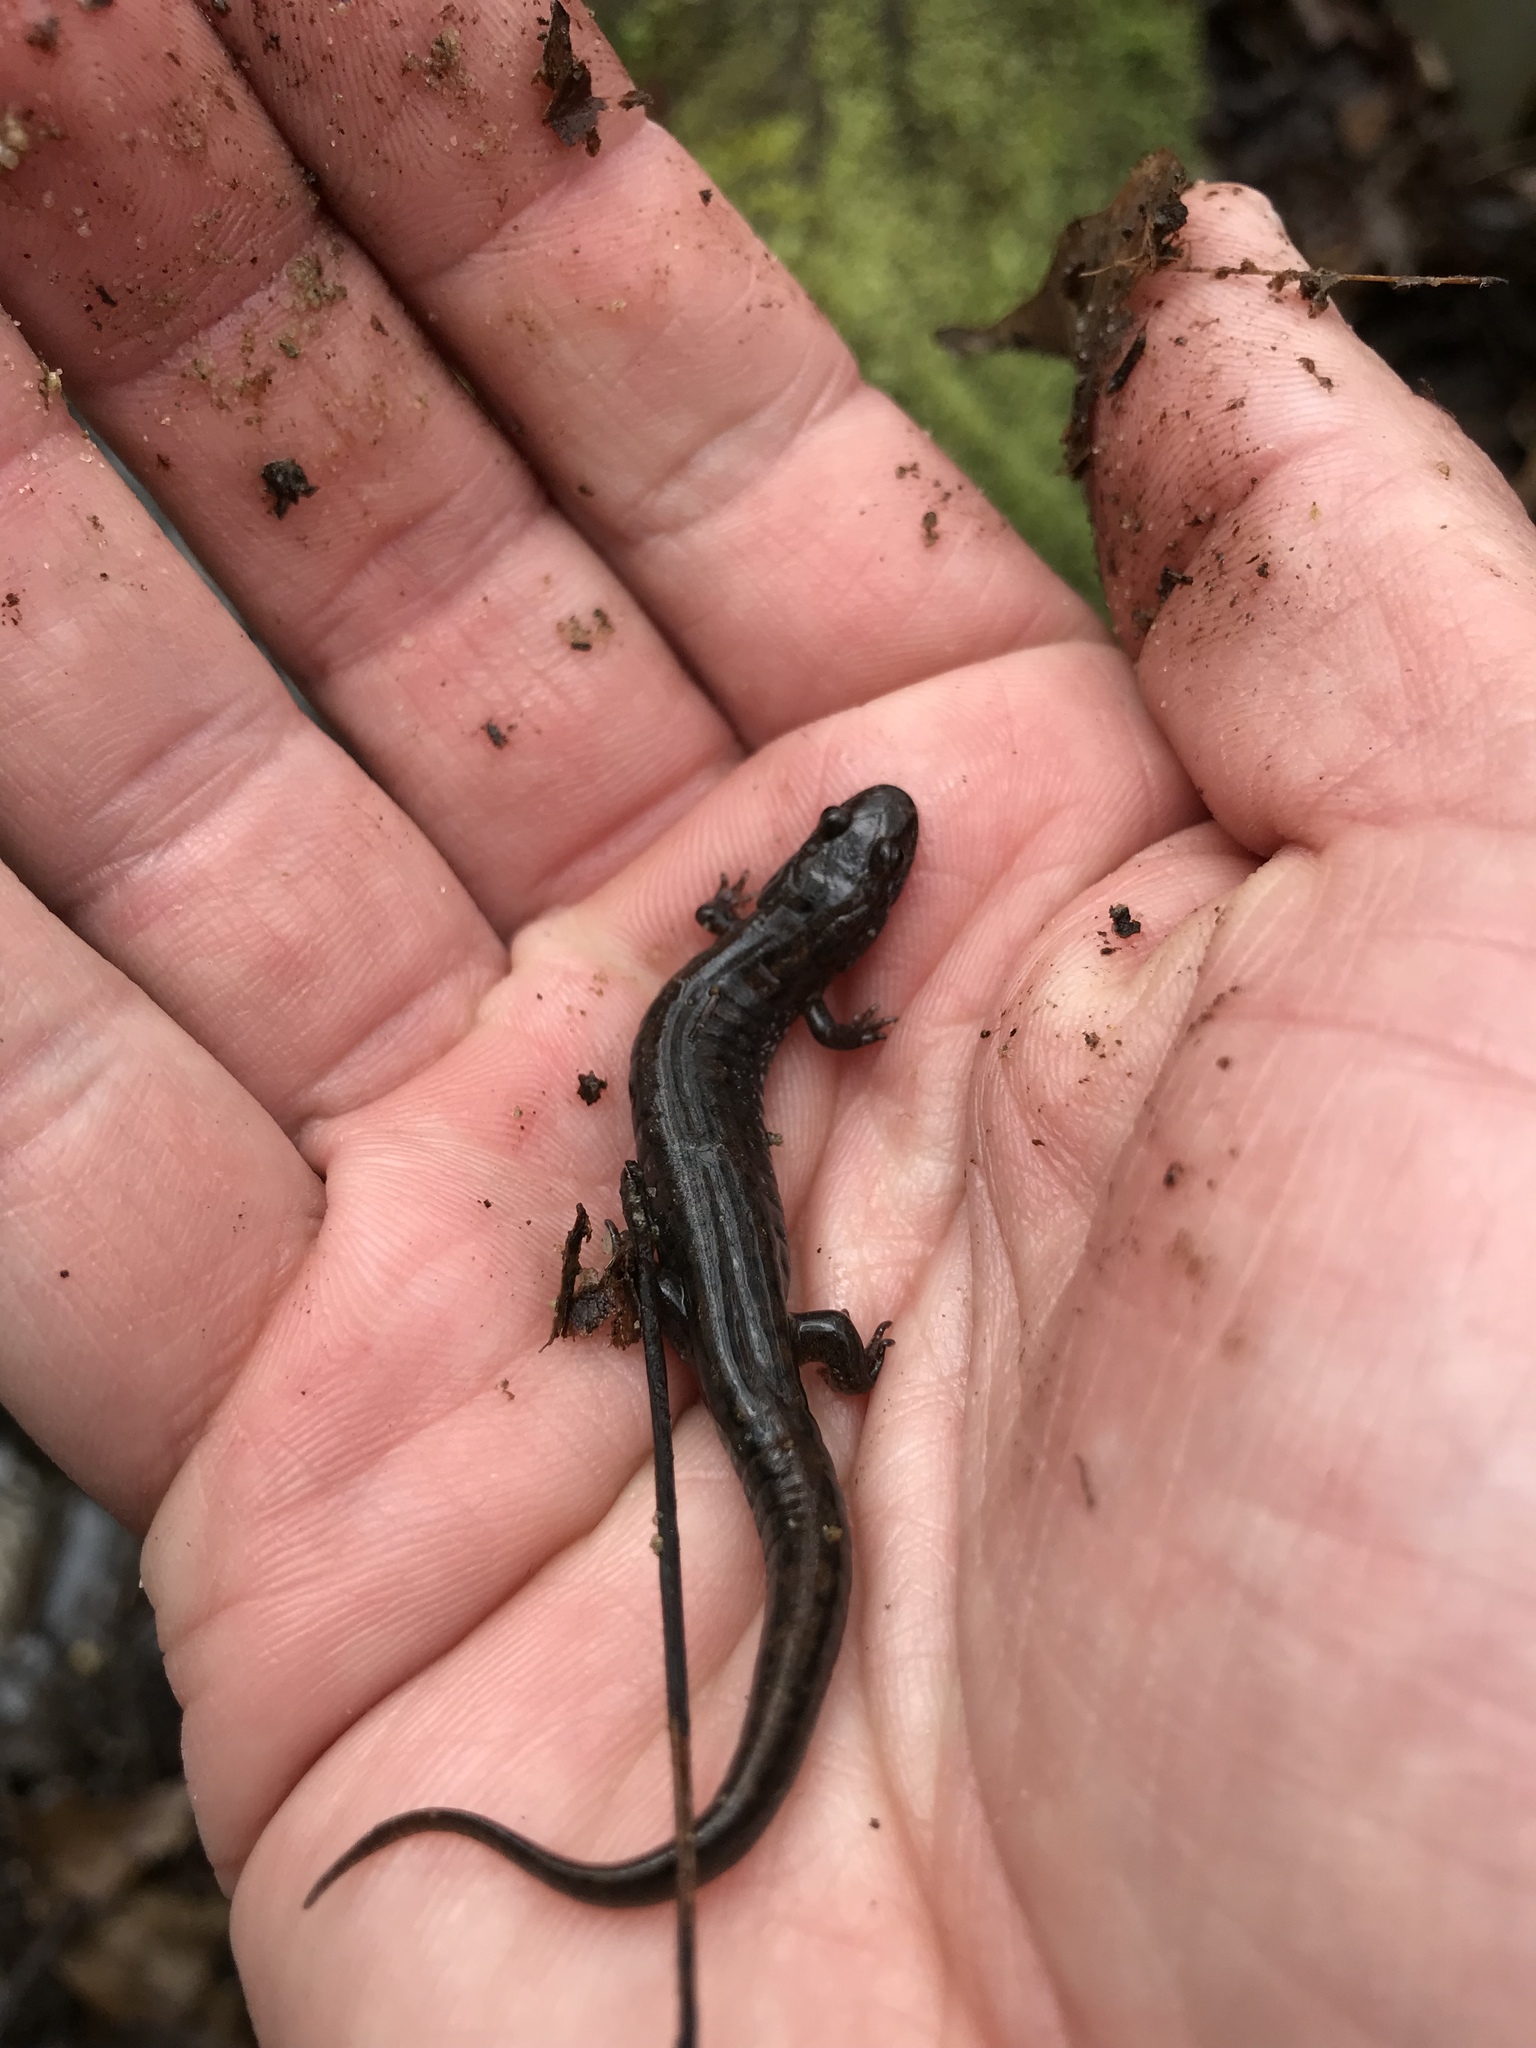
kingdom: Animalia
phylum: Chordata
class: Amphibia
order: Caudata
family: Plethodontidae
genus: Desmognathus
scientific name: Desmognathus fuscus
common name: Northern dusky salamander
